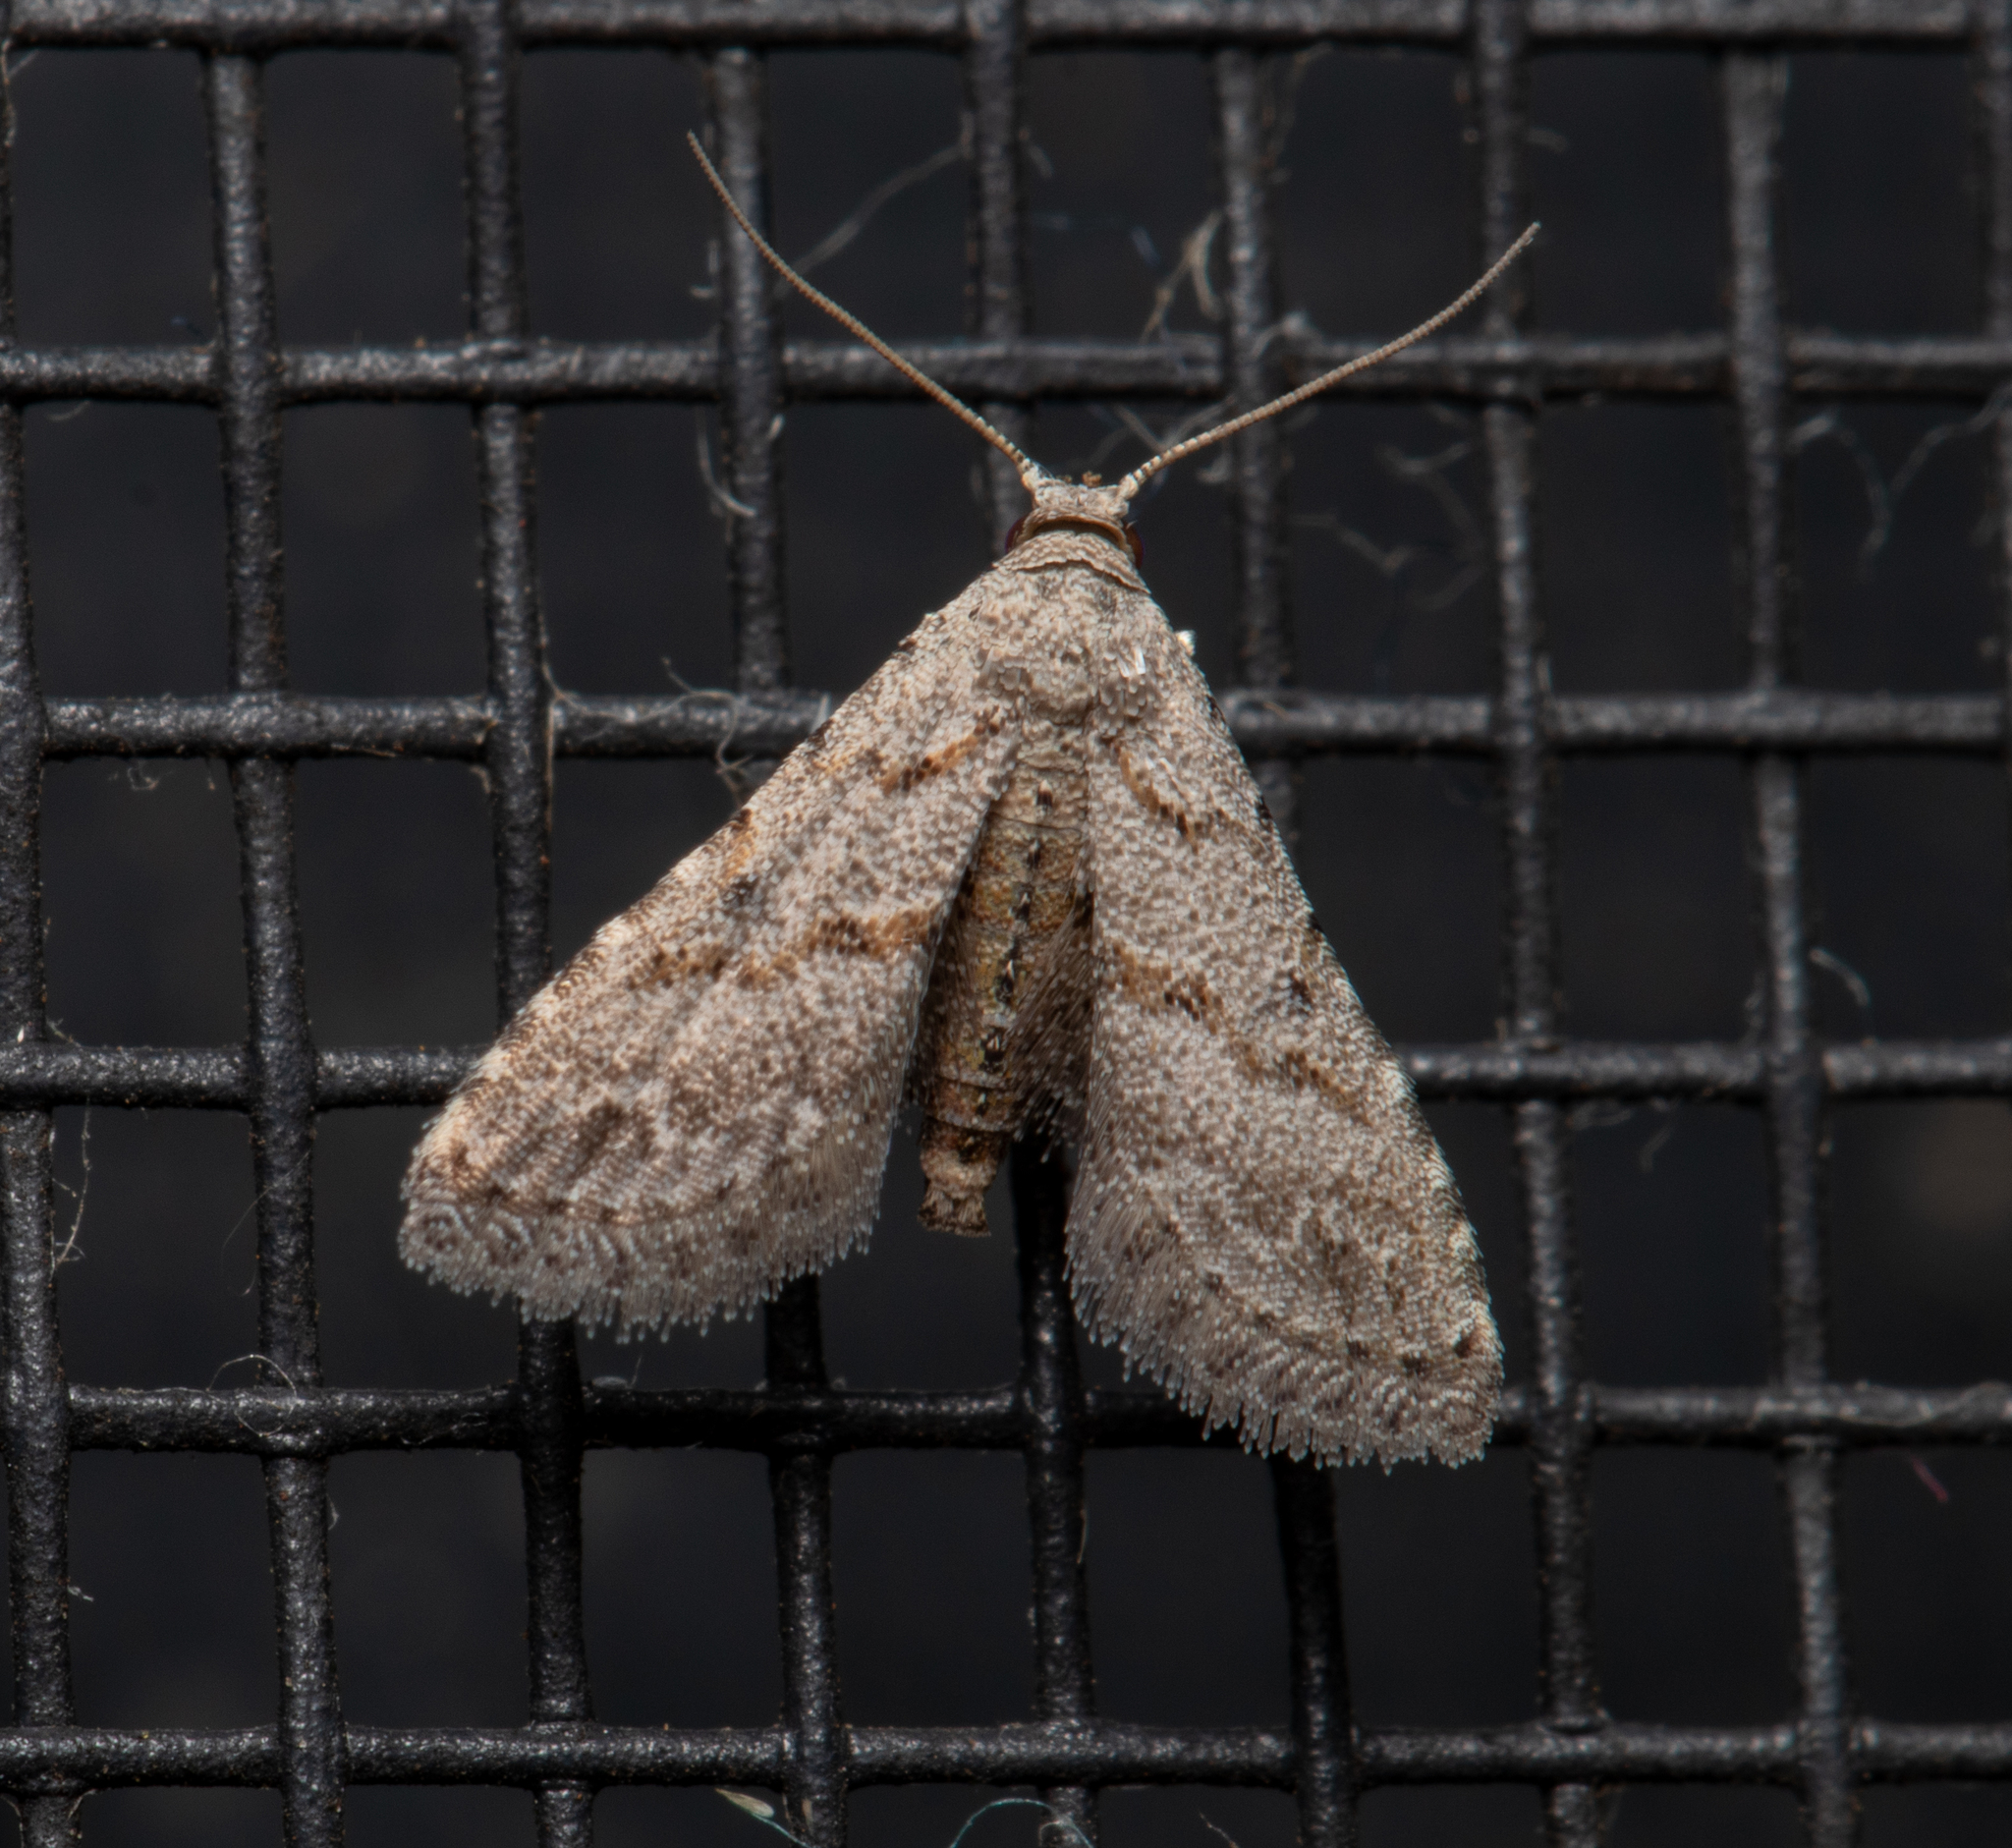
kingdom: Animalia
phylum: Arthropoda
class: Insecta
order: Lepidoptera
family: Noctuidae
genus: Araeopteron
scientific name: Araeopteron canescens
